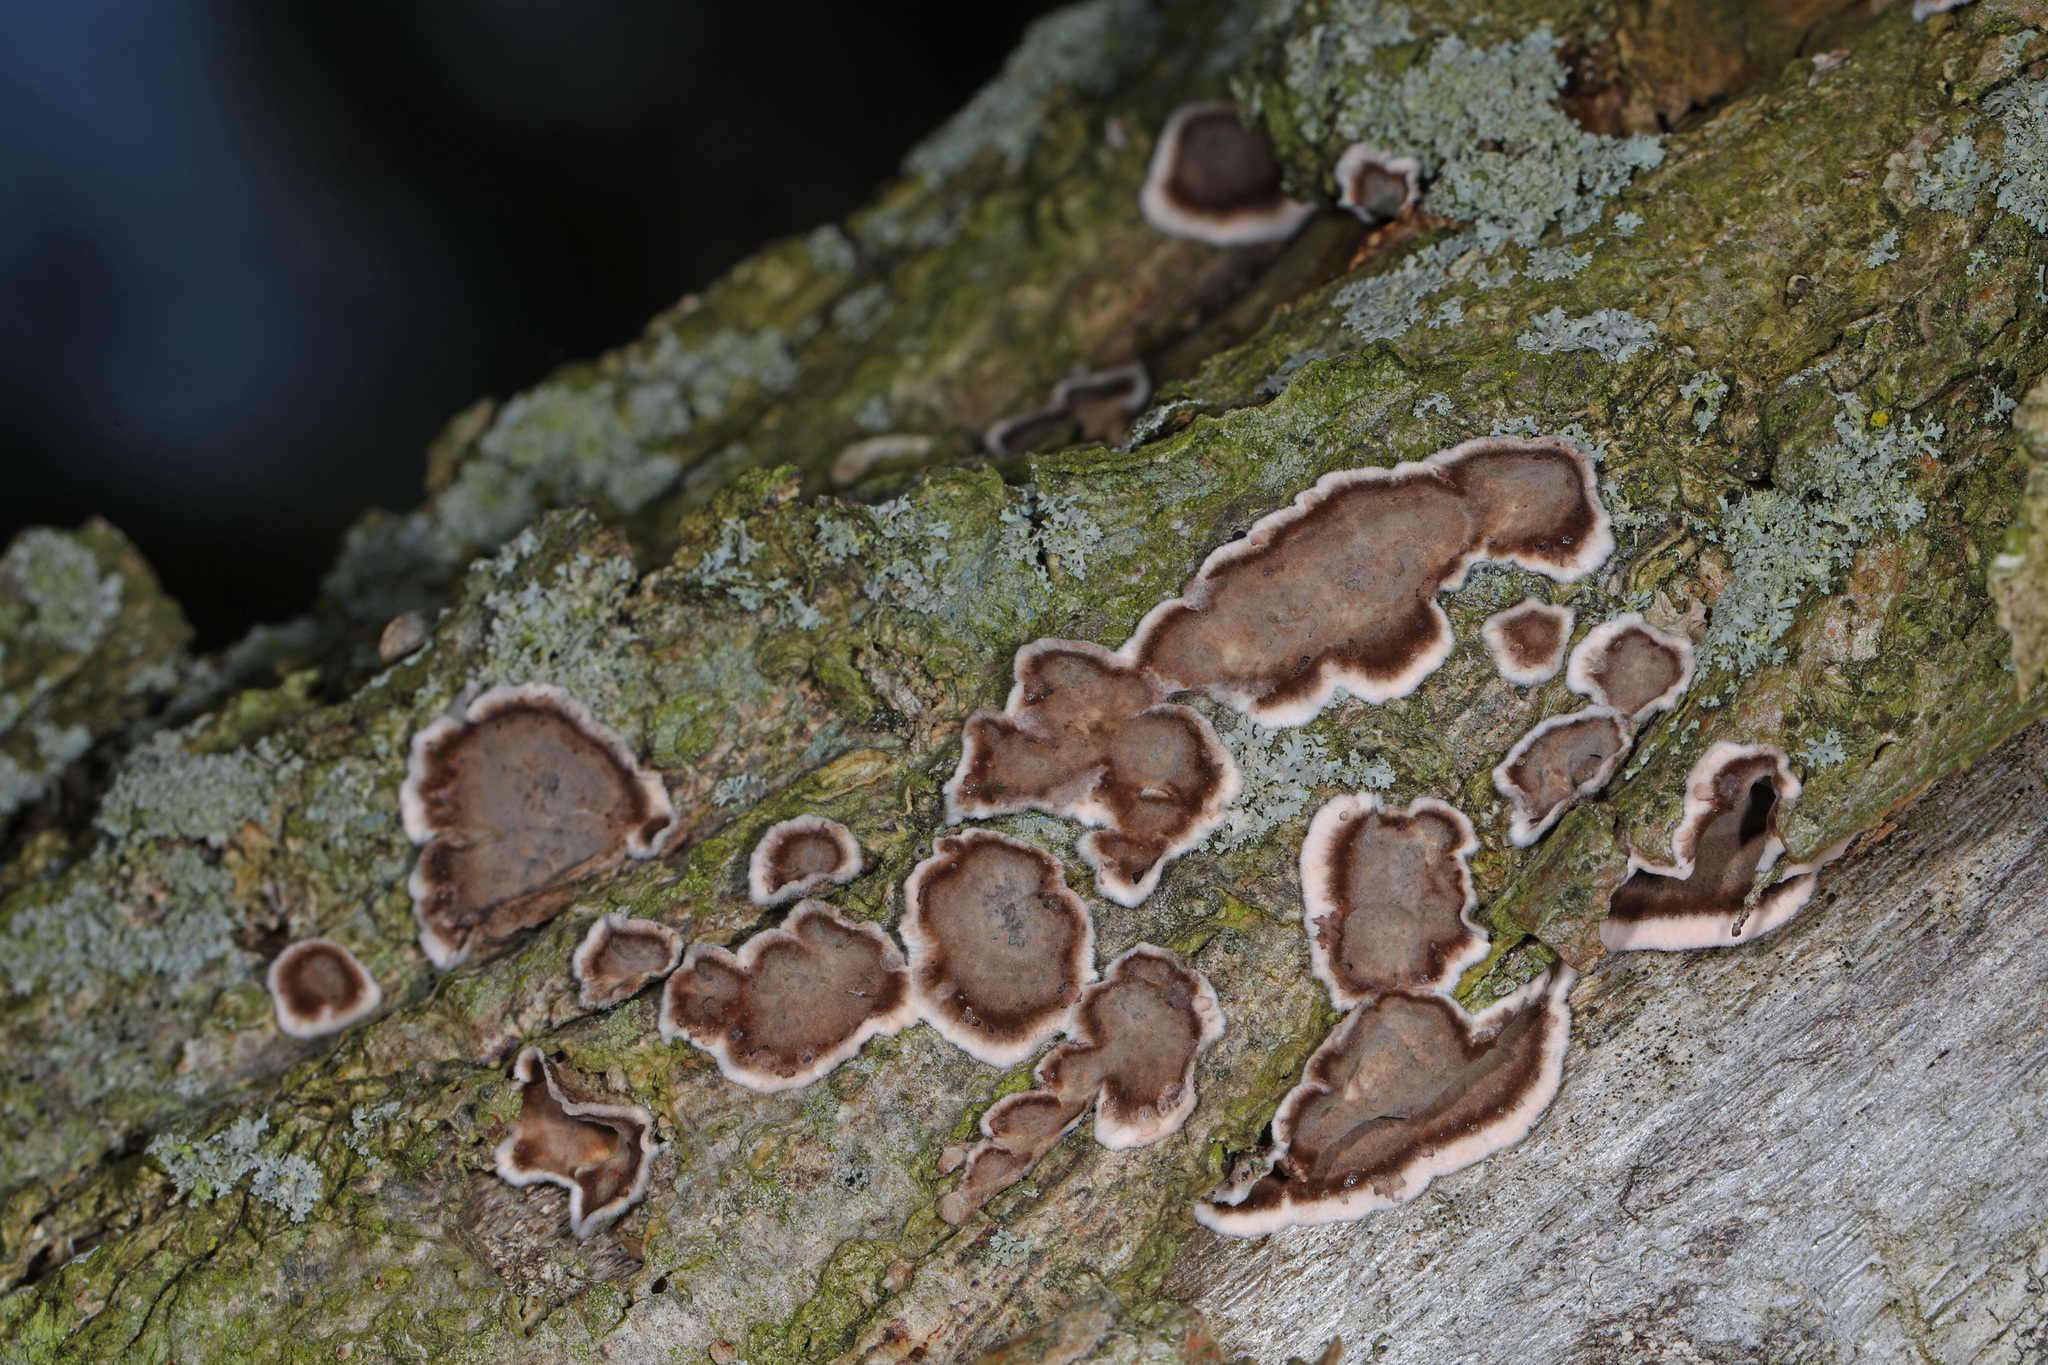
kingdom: Fungi
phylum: Basidiomycota
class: Agaricomycetes
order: Russulales
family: Peniophoraceae
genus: Peniophora
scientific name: Peniophora albobadia
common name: Giraffe spots
